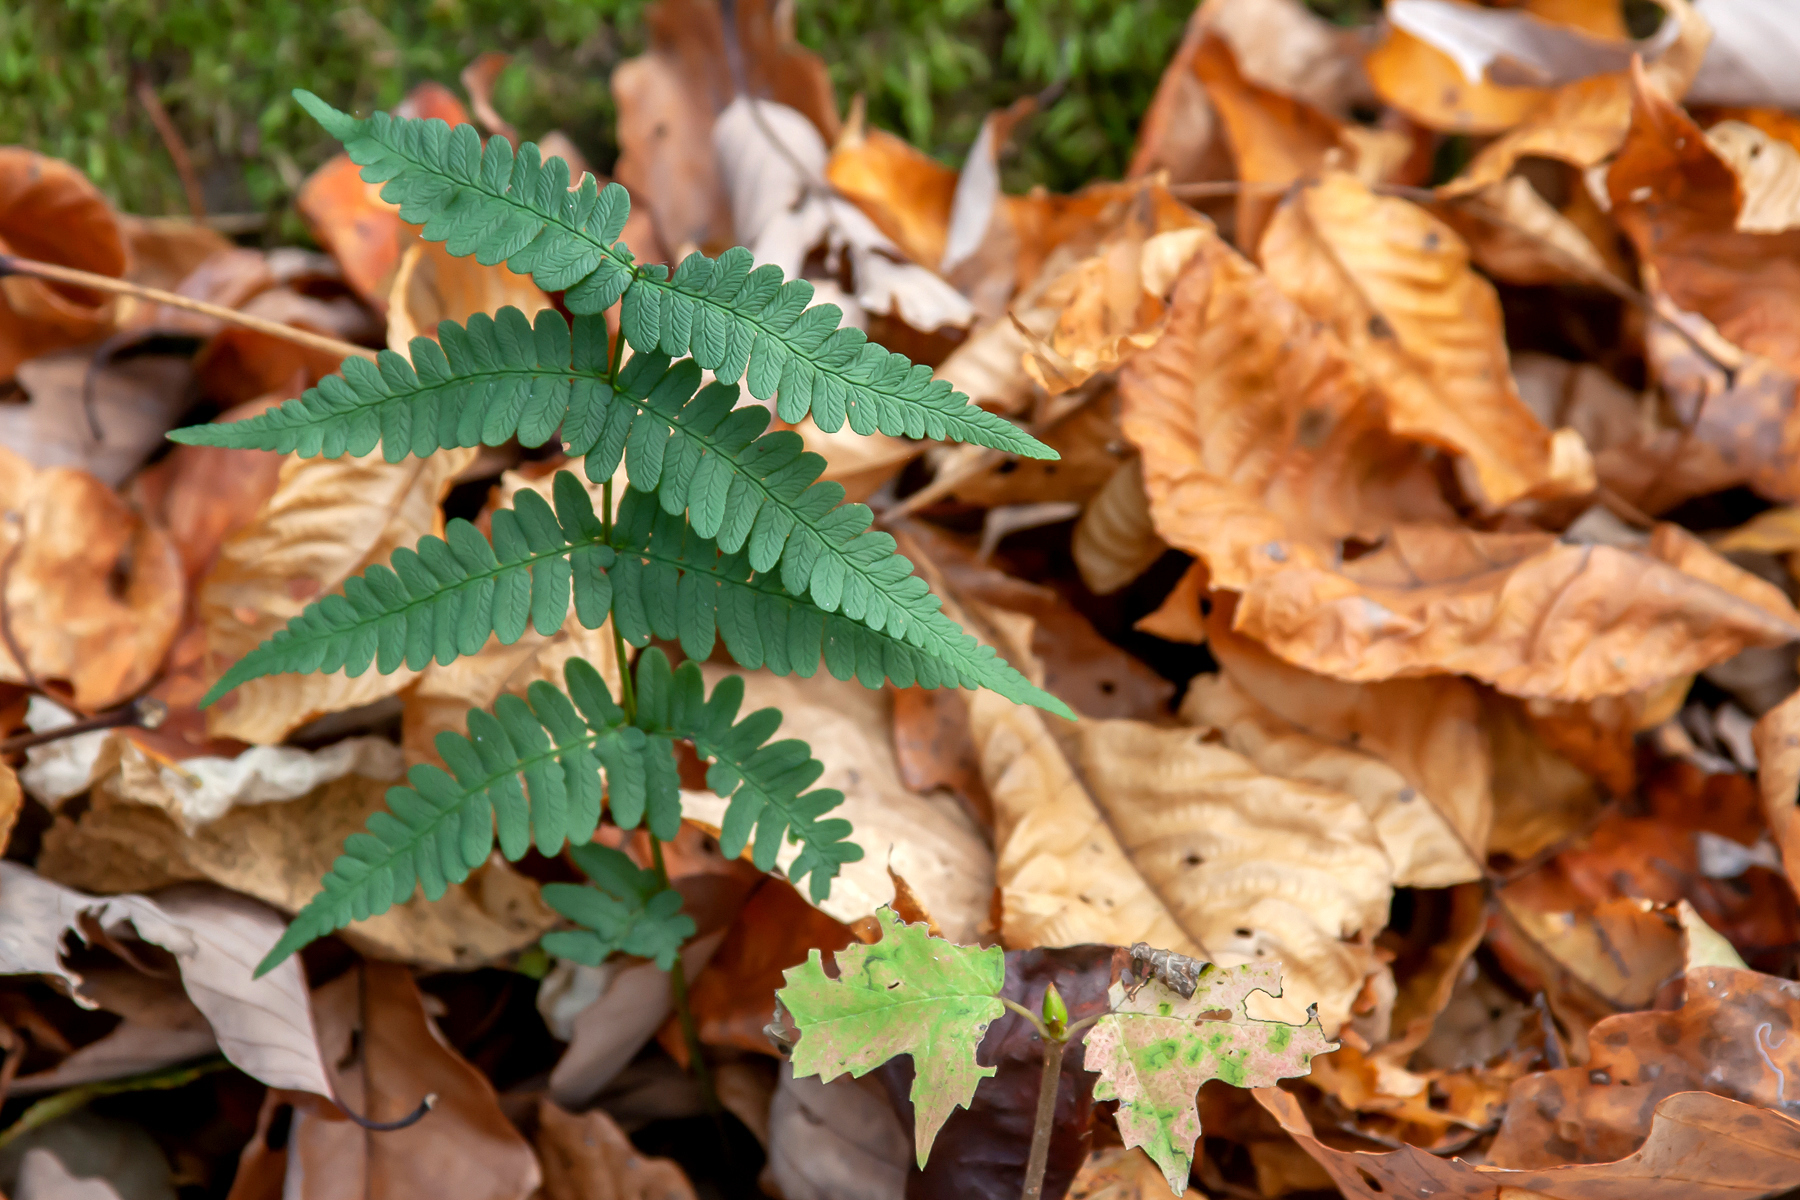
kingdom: Plantae
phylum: Tracheophyta
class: Polypodiopsida
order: Polypodiales
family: Dryopteridaceae
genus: Dryopteris
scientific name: Dryopteris marginalis
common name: Marginal wood fern
